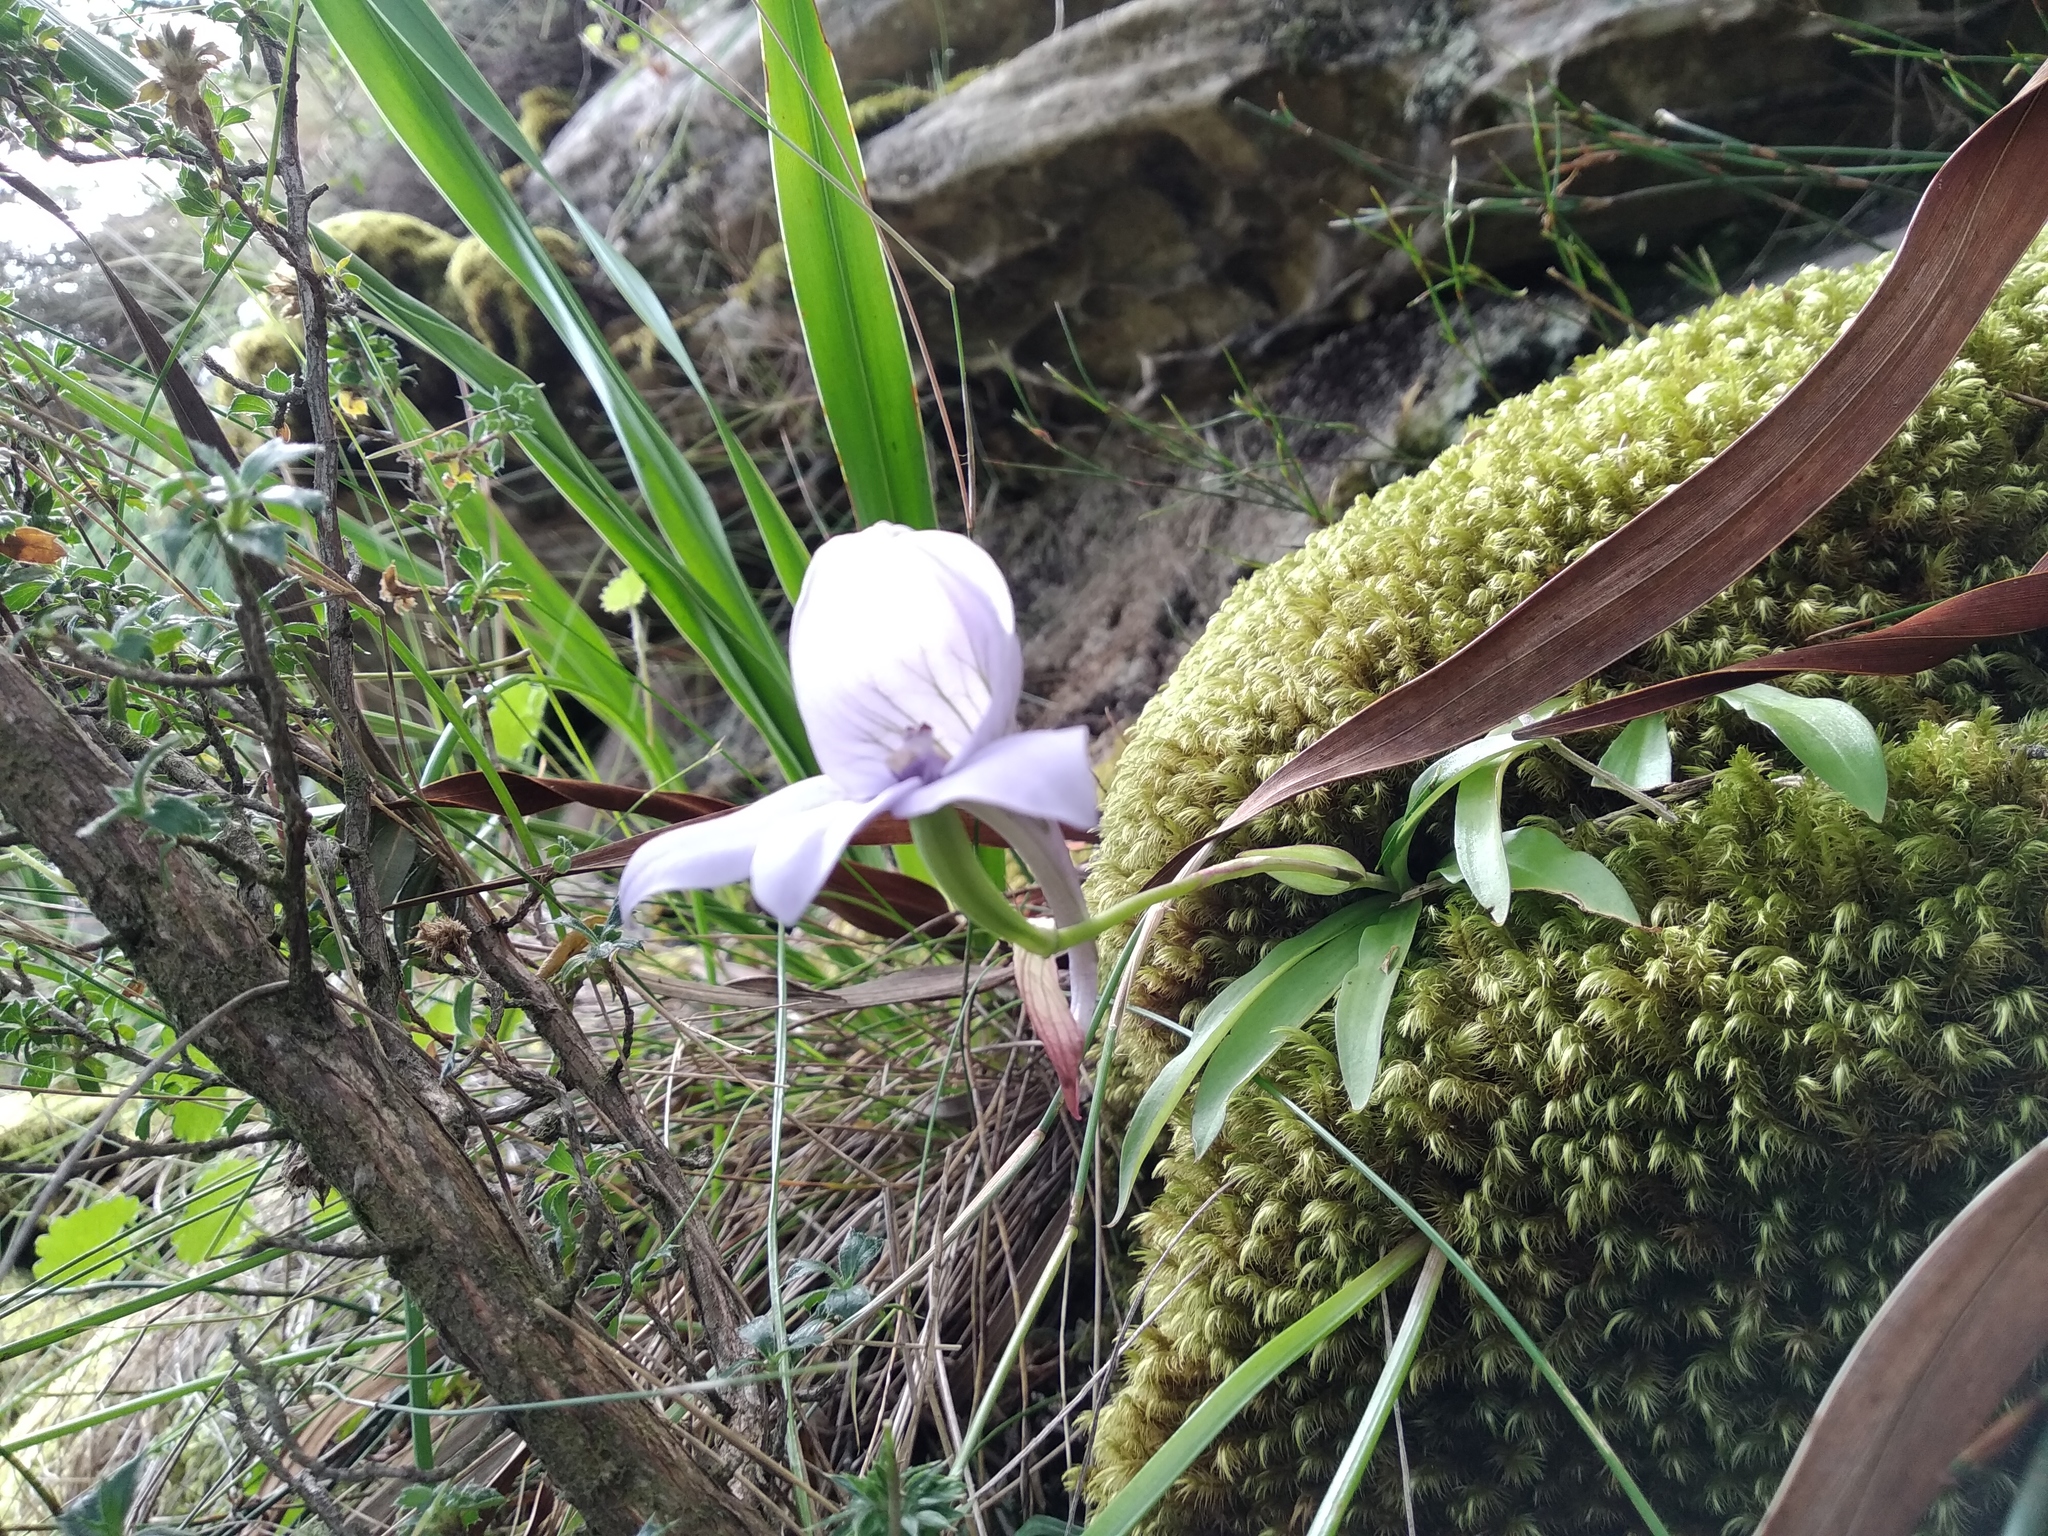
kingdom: Plantae
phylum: Tracheophyta
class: Liliopsida
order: Asparagales
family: Orchidaceae
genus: Disa
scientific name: Disa longicornu
